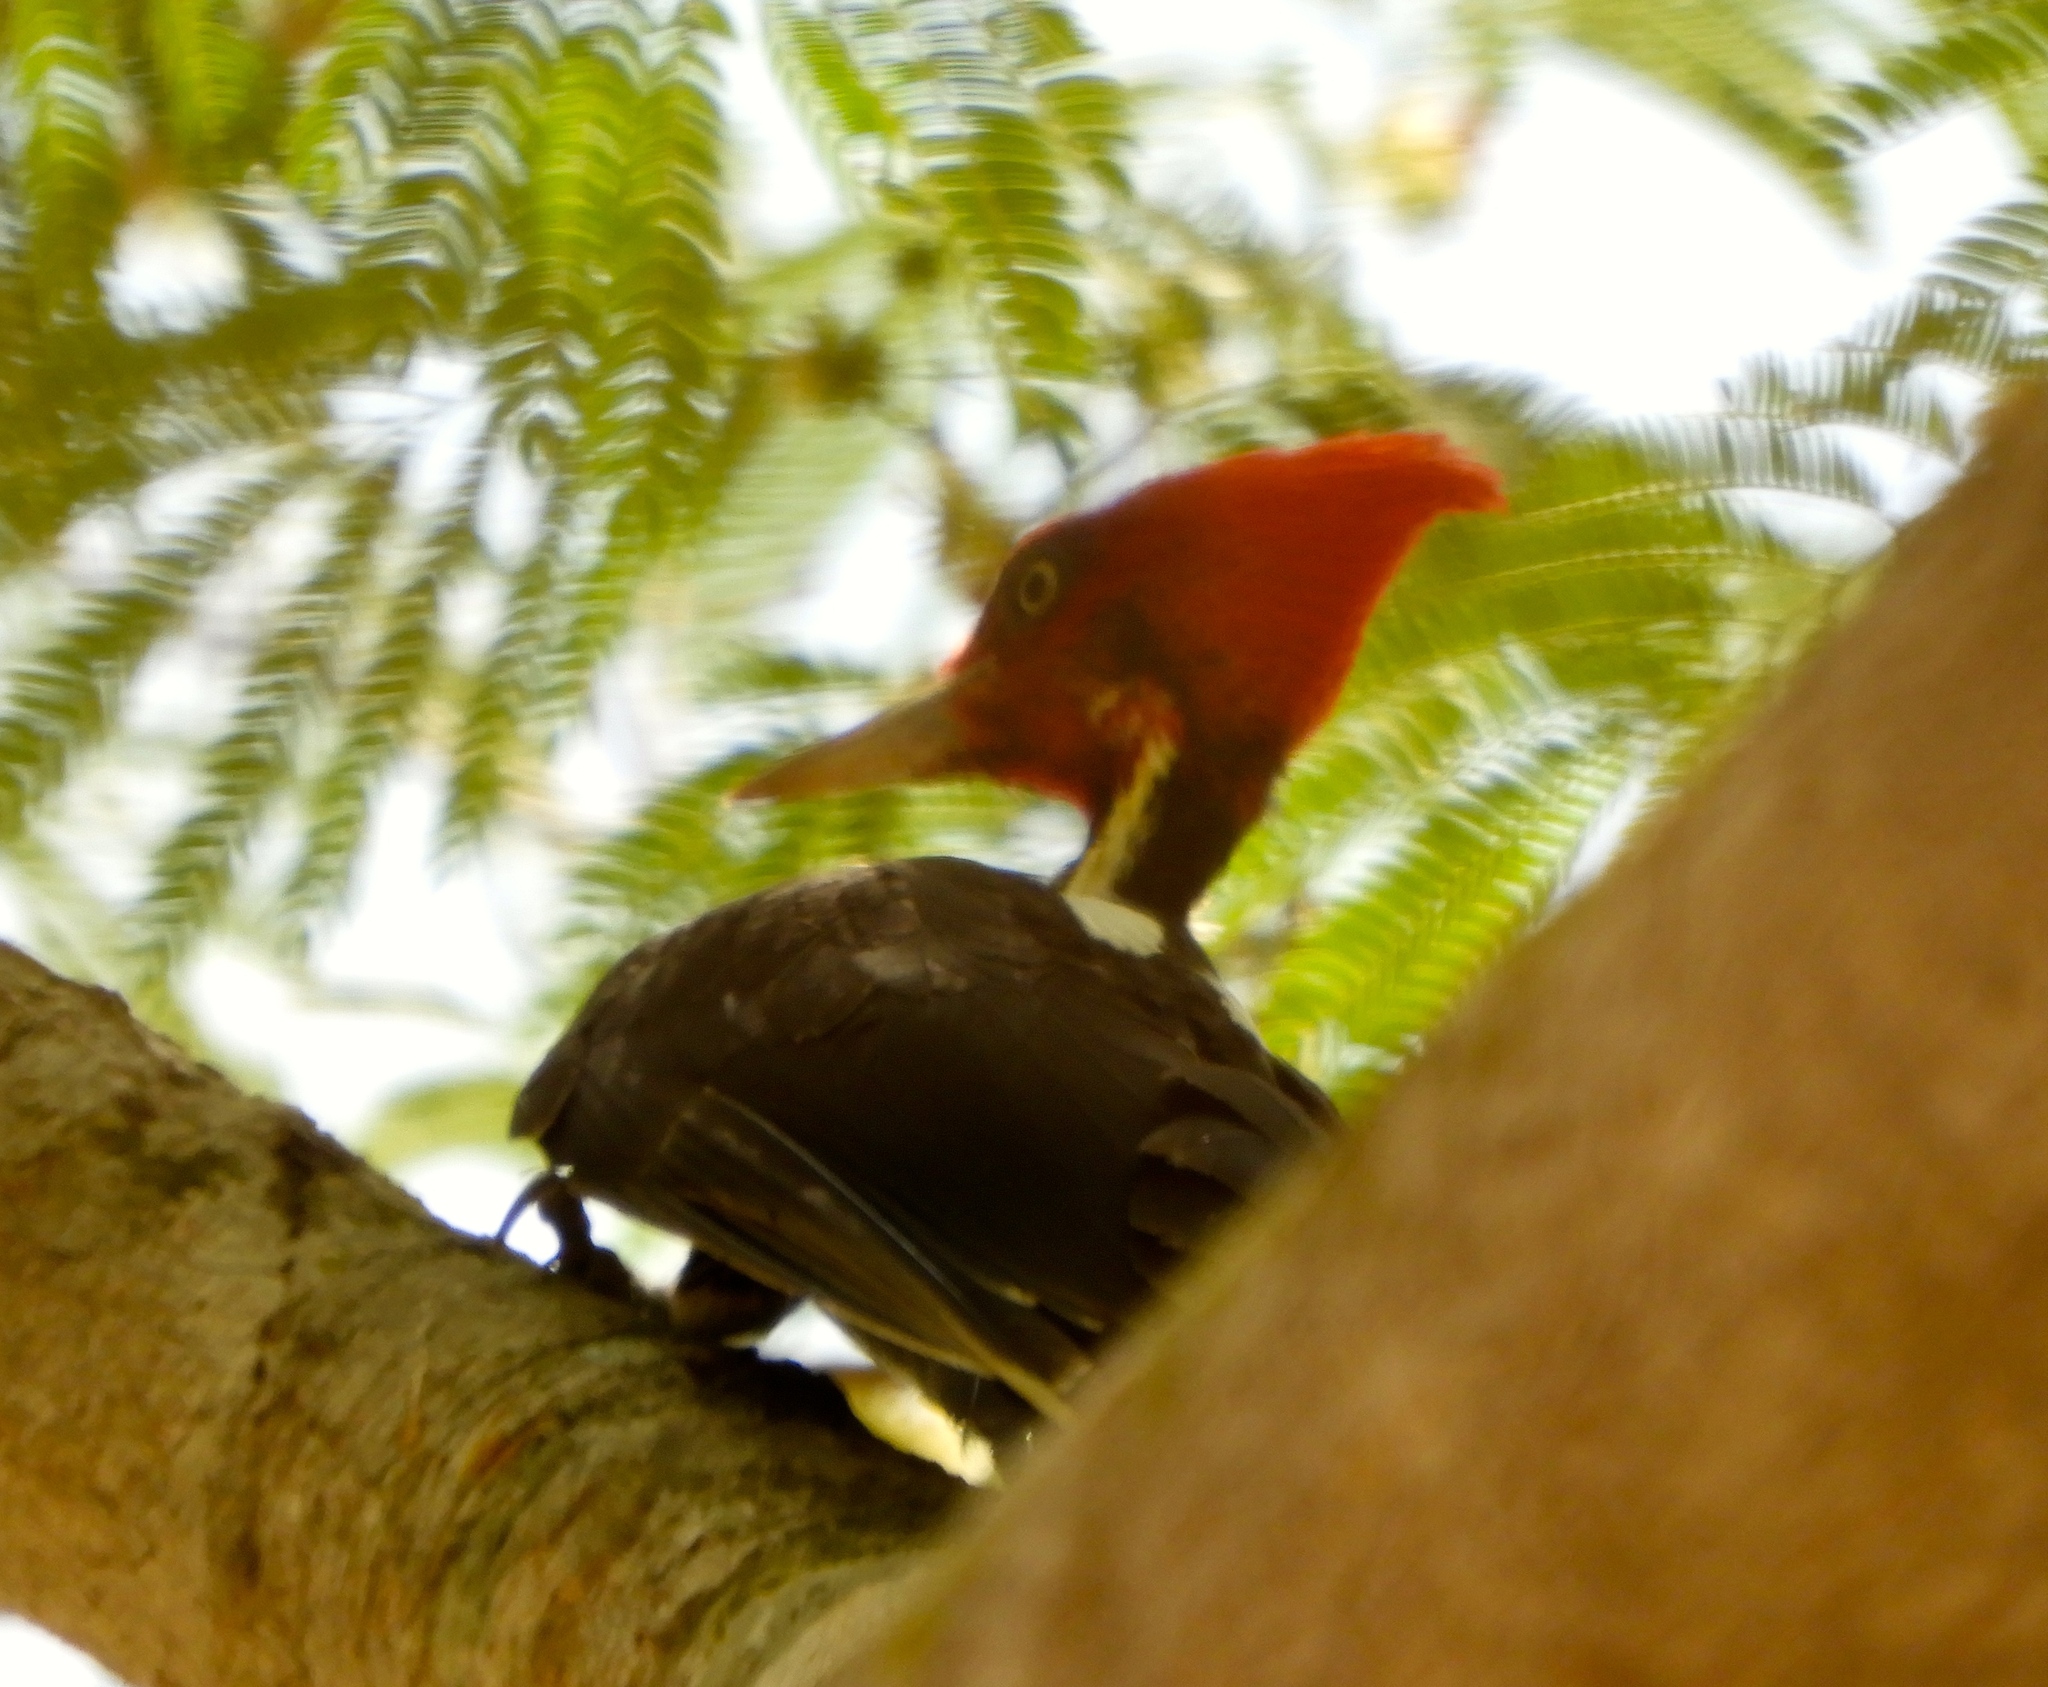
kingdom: Animalia
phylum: Chordata
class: Aves
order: Piciformes
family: Picidae
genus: Campephilus
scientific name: Campephilus guatemalensis
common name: Pale-billed woodpecker
